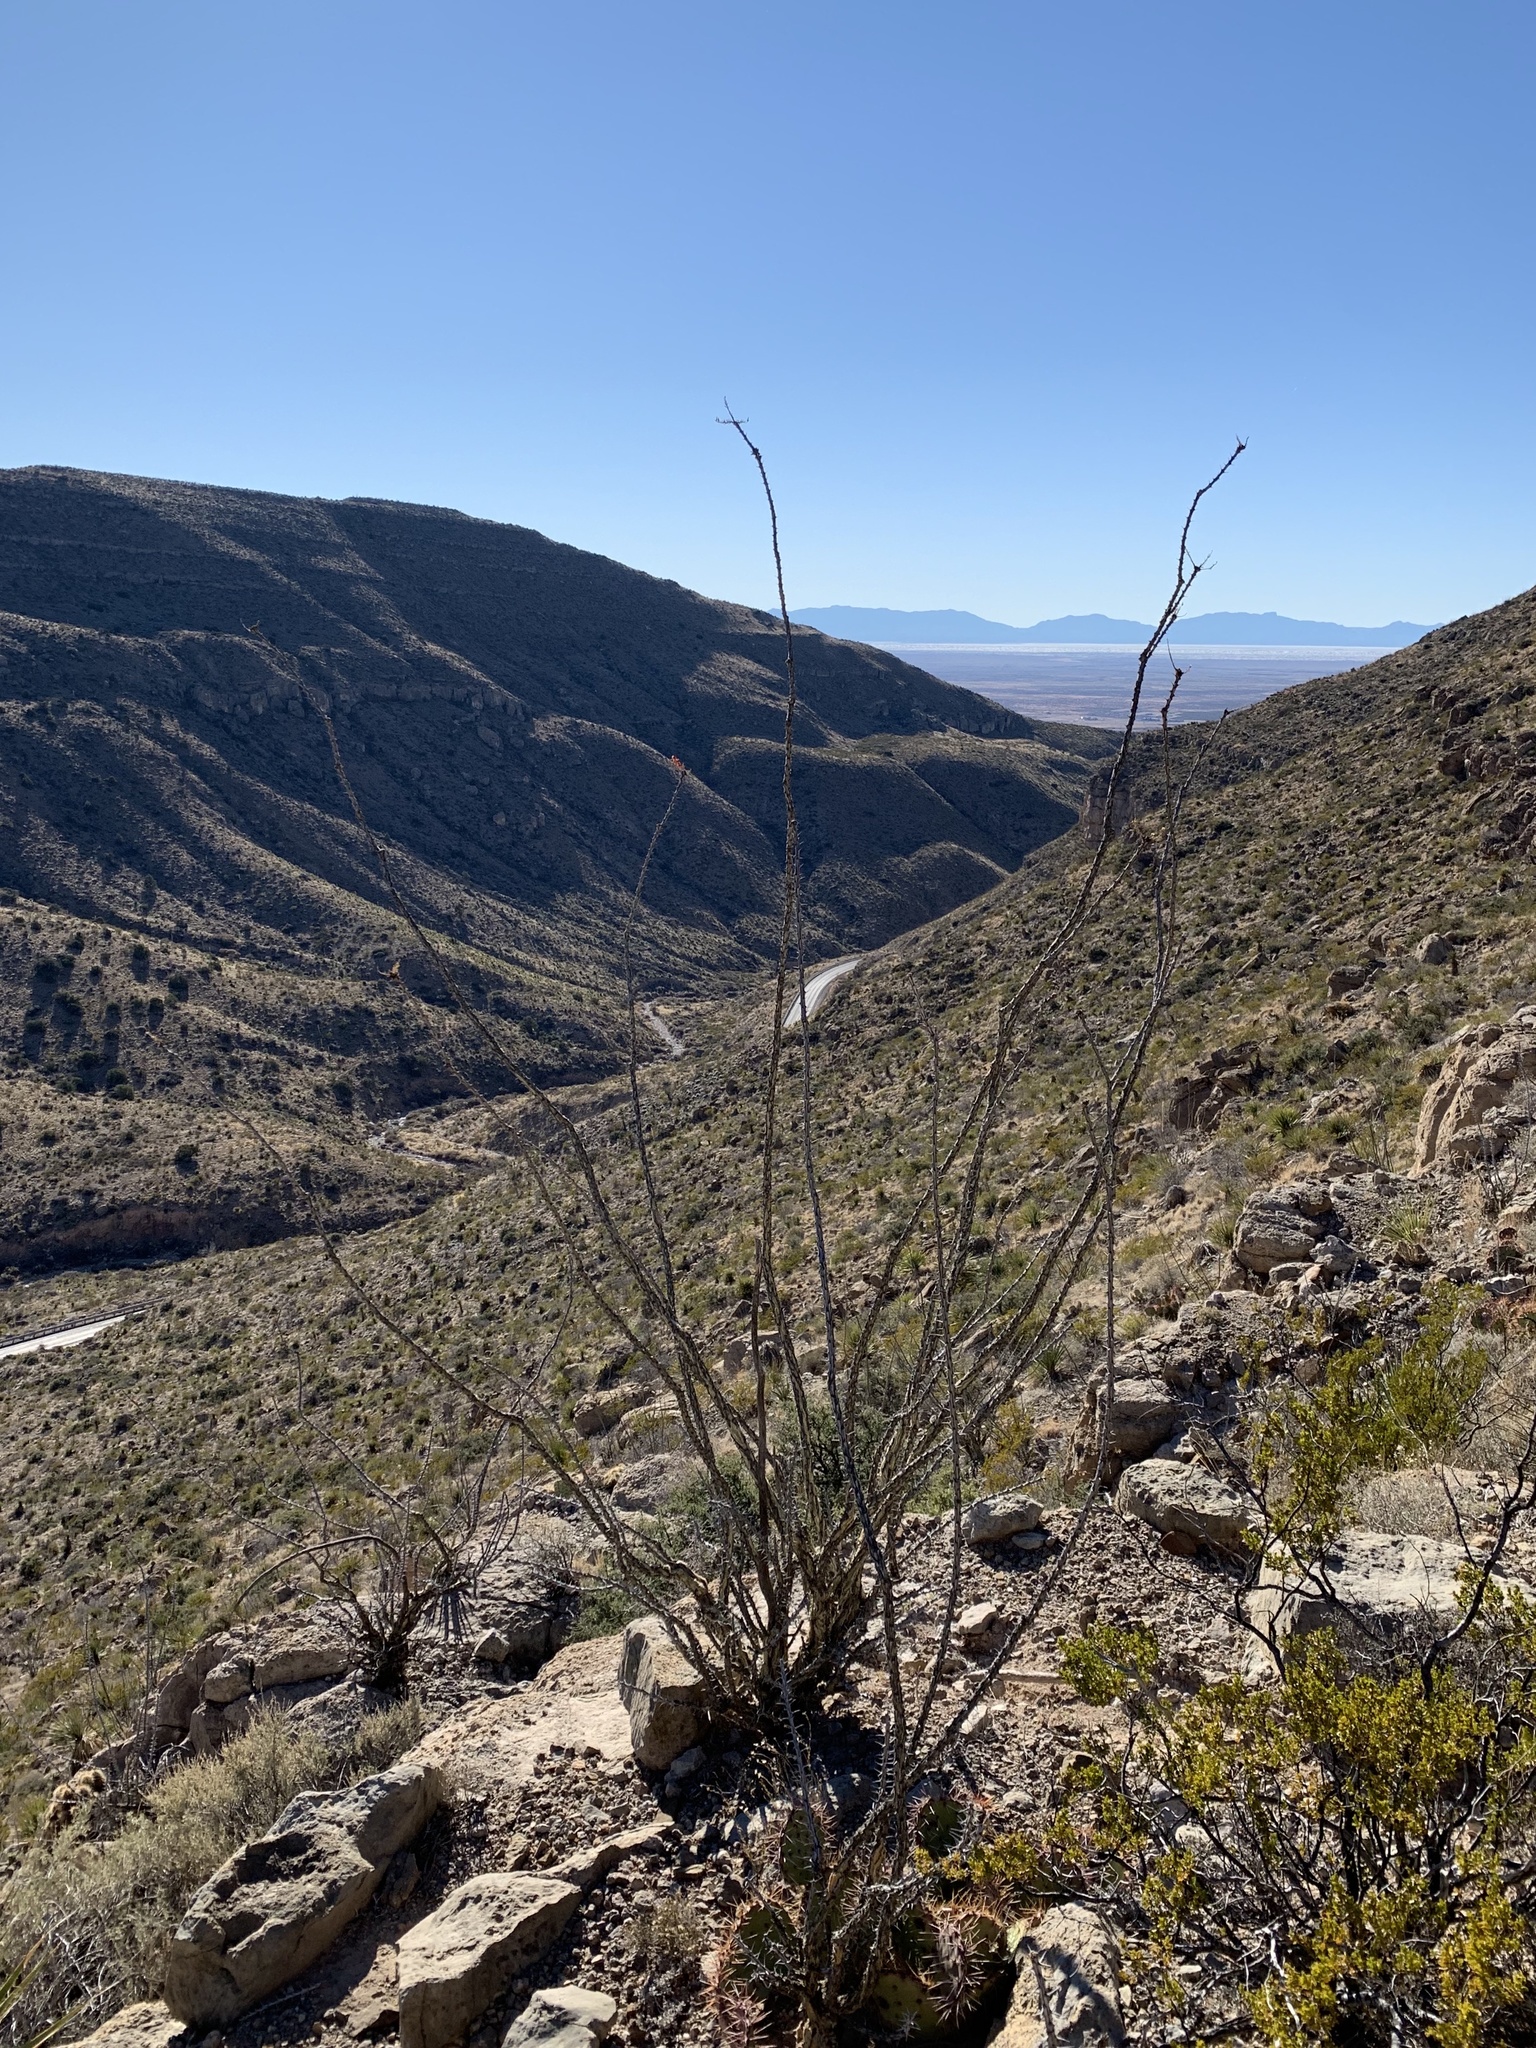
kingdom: Plantae
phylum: Tracheophyta
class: Magnoliopsida
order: Ericales
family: Fouquieriaceae
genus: Fouquieria
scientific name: Fouquieria splendens
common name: Vine-cactus
